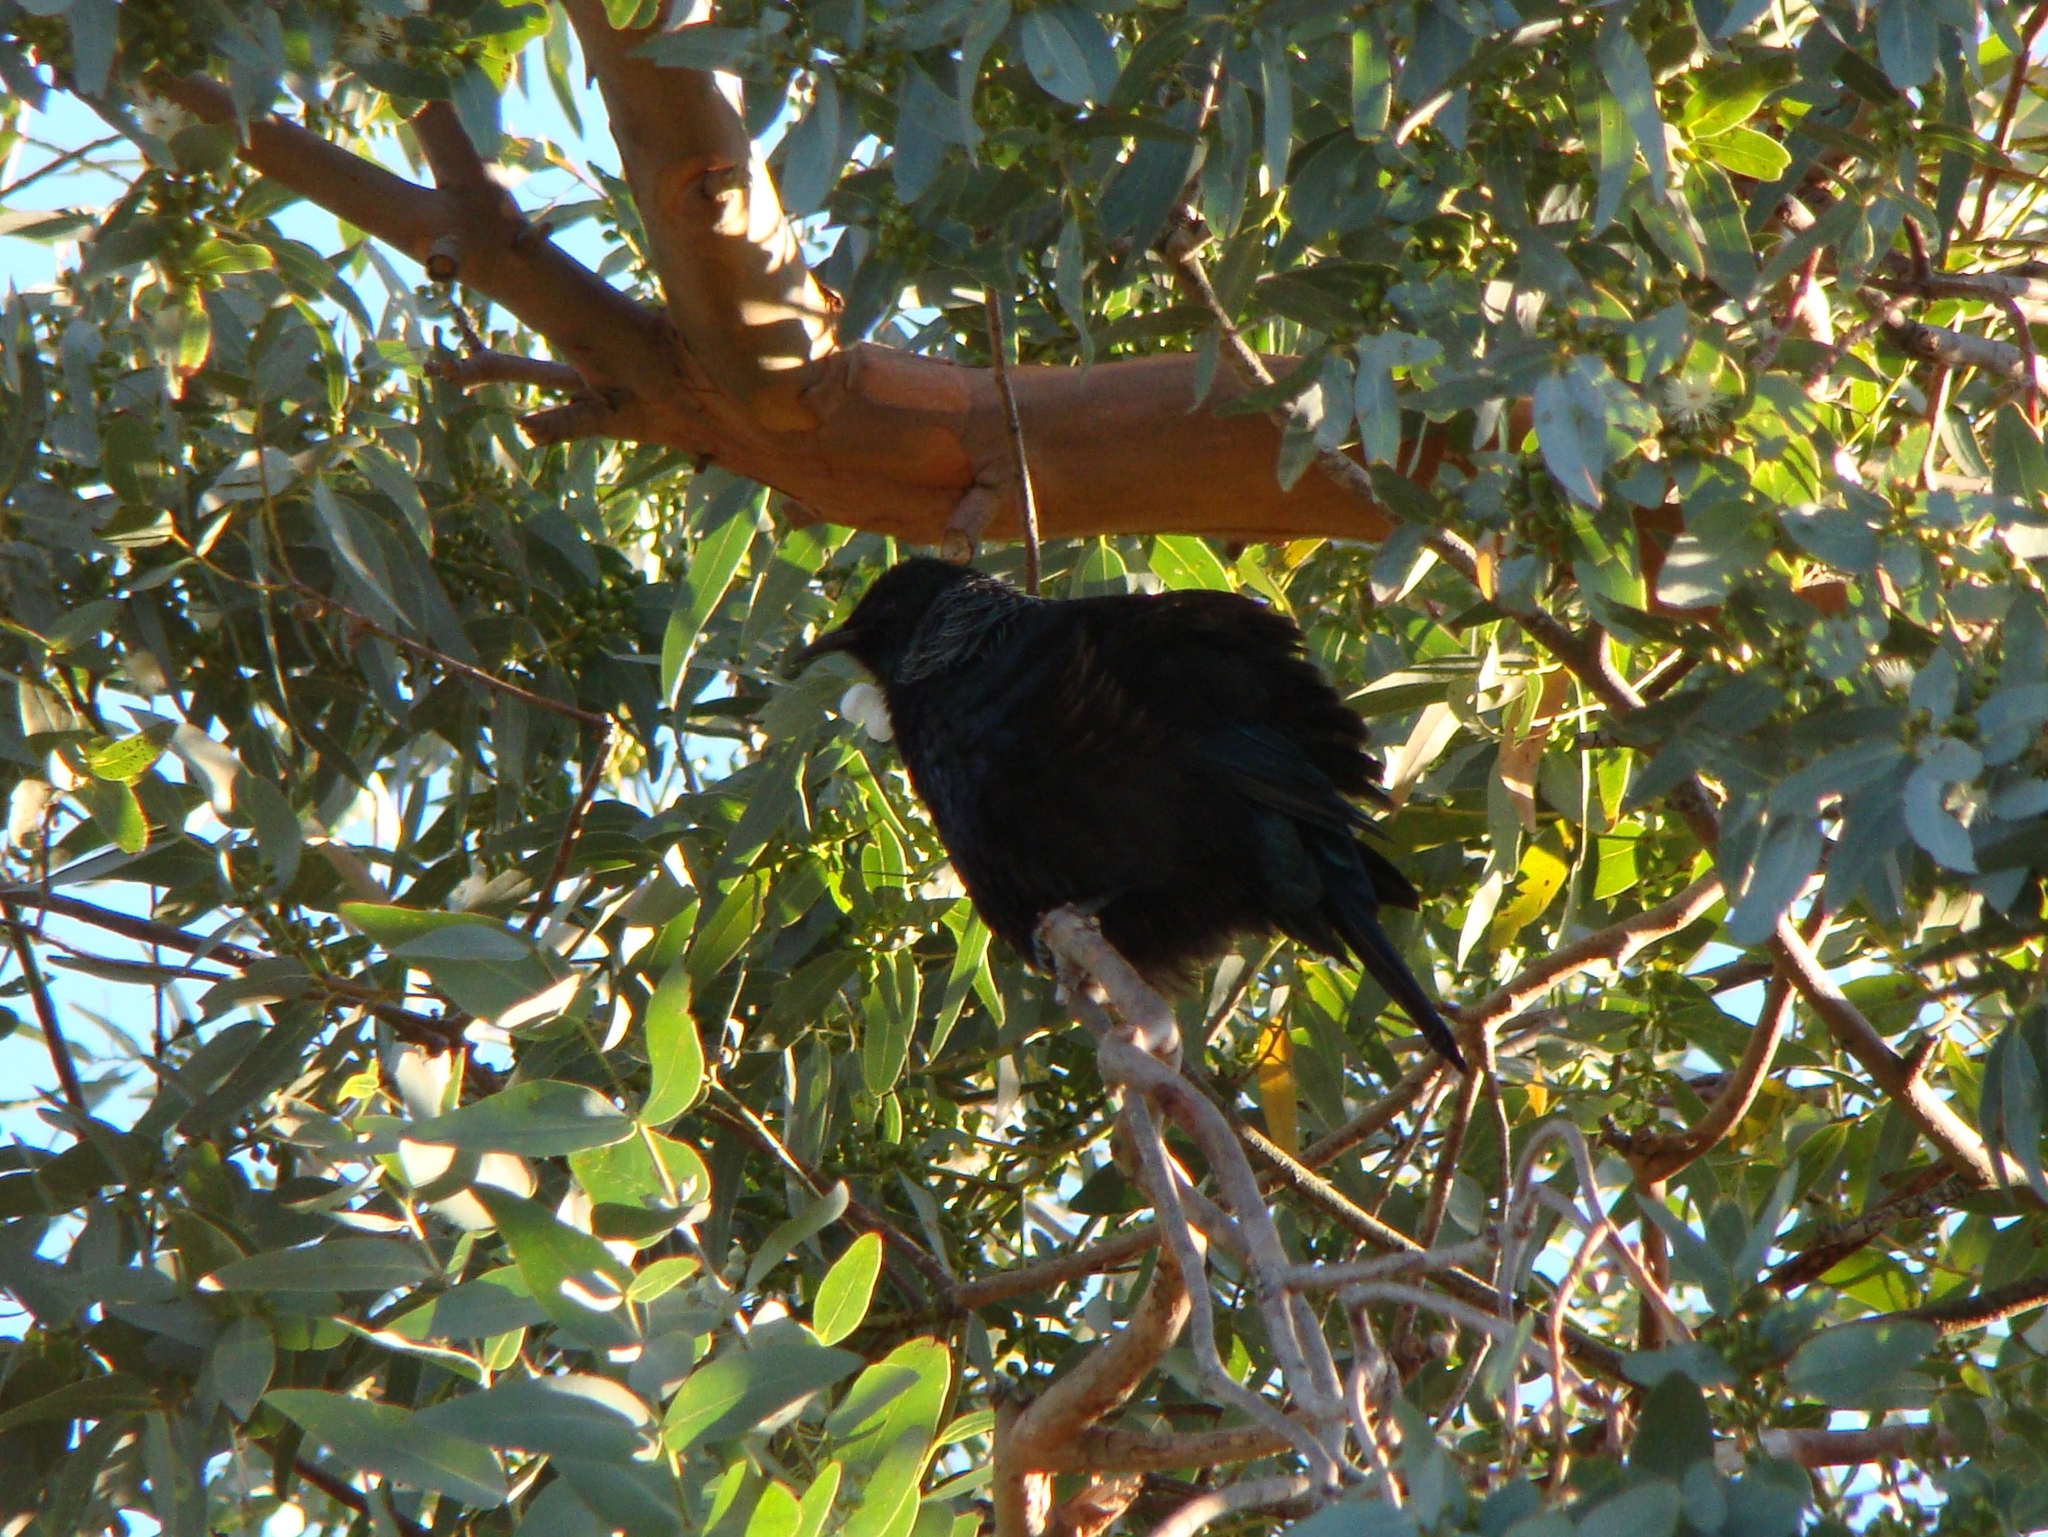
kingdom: Animalia
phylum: Chordata
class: Aves
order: Passeriformes
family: Meliphagidae
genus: Prosthemadera
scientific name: Prosthemadera novaeseelandiae
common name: Tui
